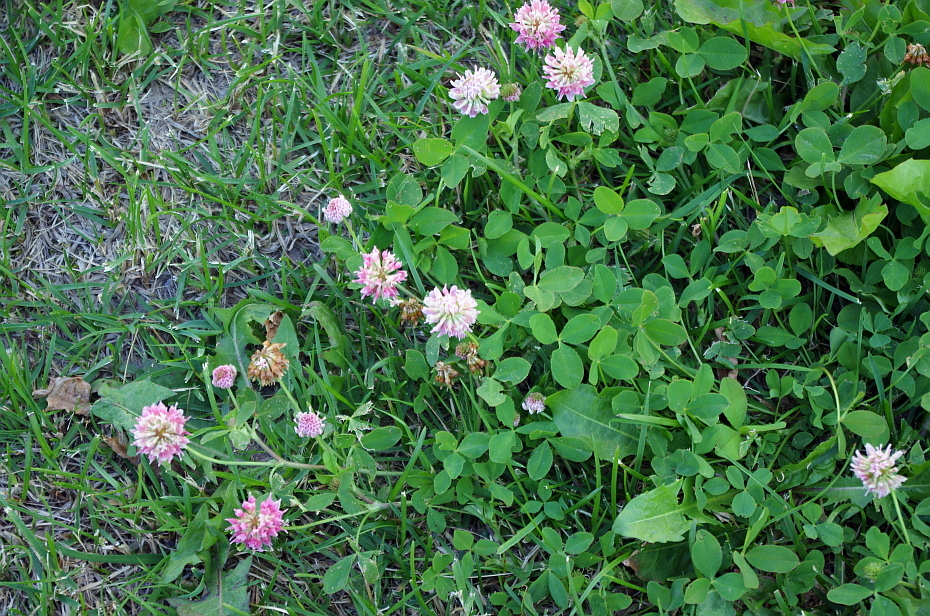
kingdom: Plantae
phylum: Tracheophyta
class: Magnoliopsida
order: Fabales
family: Fabaceae
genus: Trifolium
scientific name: Trifolium hybridum
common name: Alsike clover
